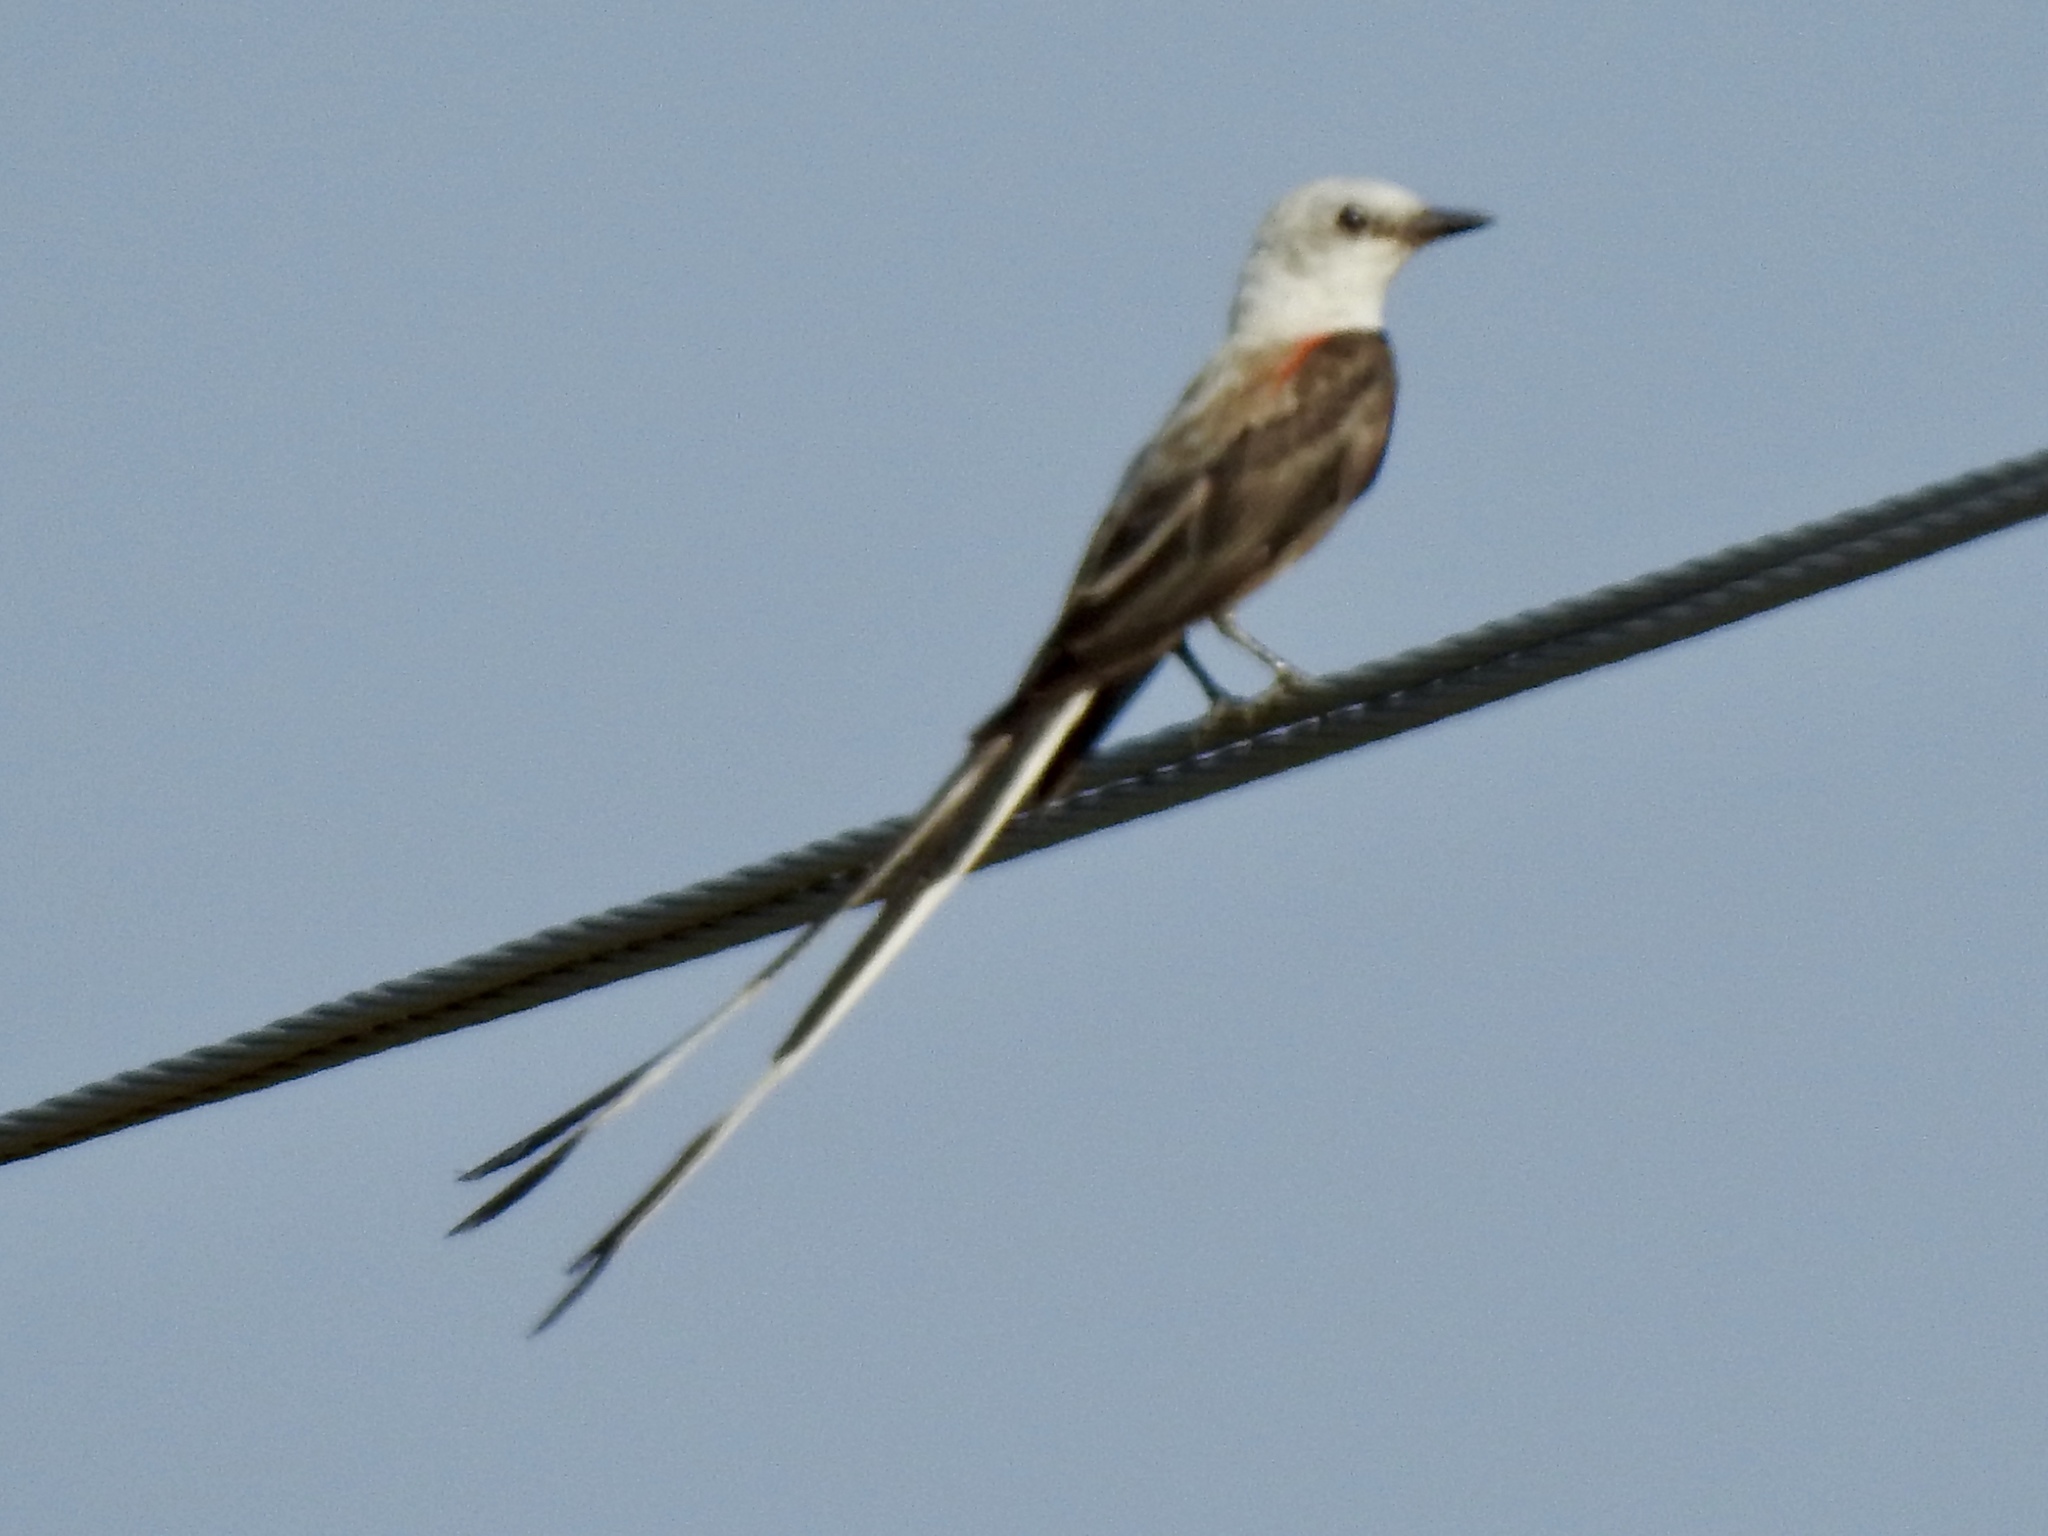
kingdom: Animalia
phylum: Chordata
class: Aves
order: Passeriformes
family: Tyrannidae
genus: Tyrannus
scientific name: Tyrannus forficatus
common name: Scissor-tailed flycatcher
